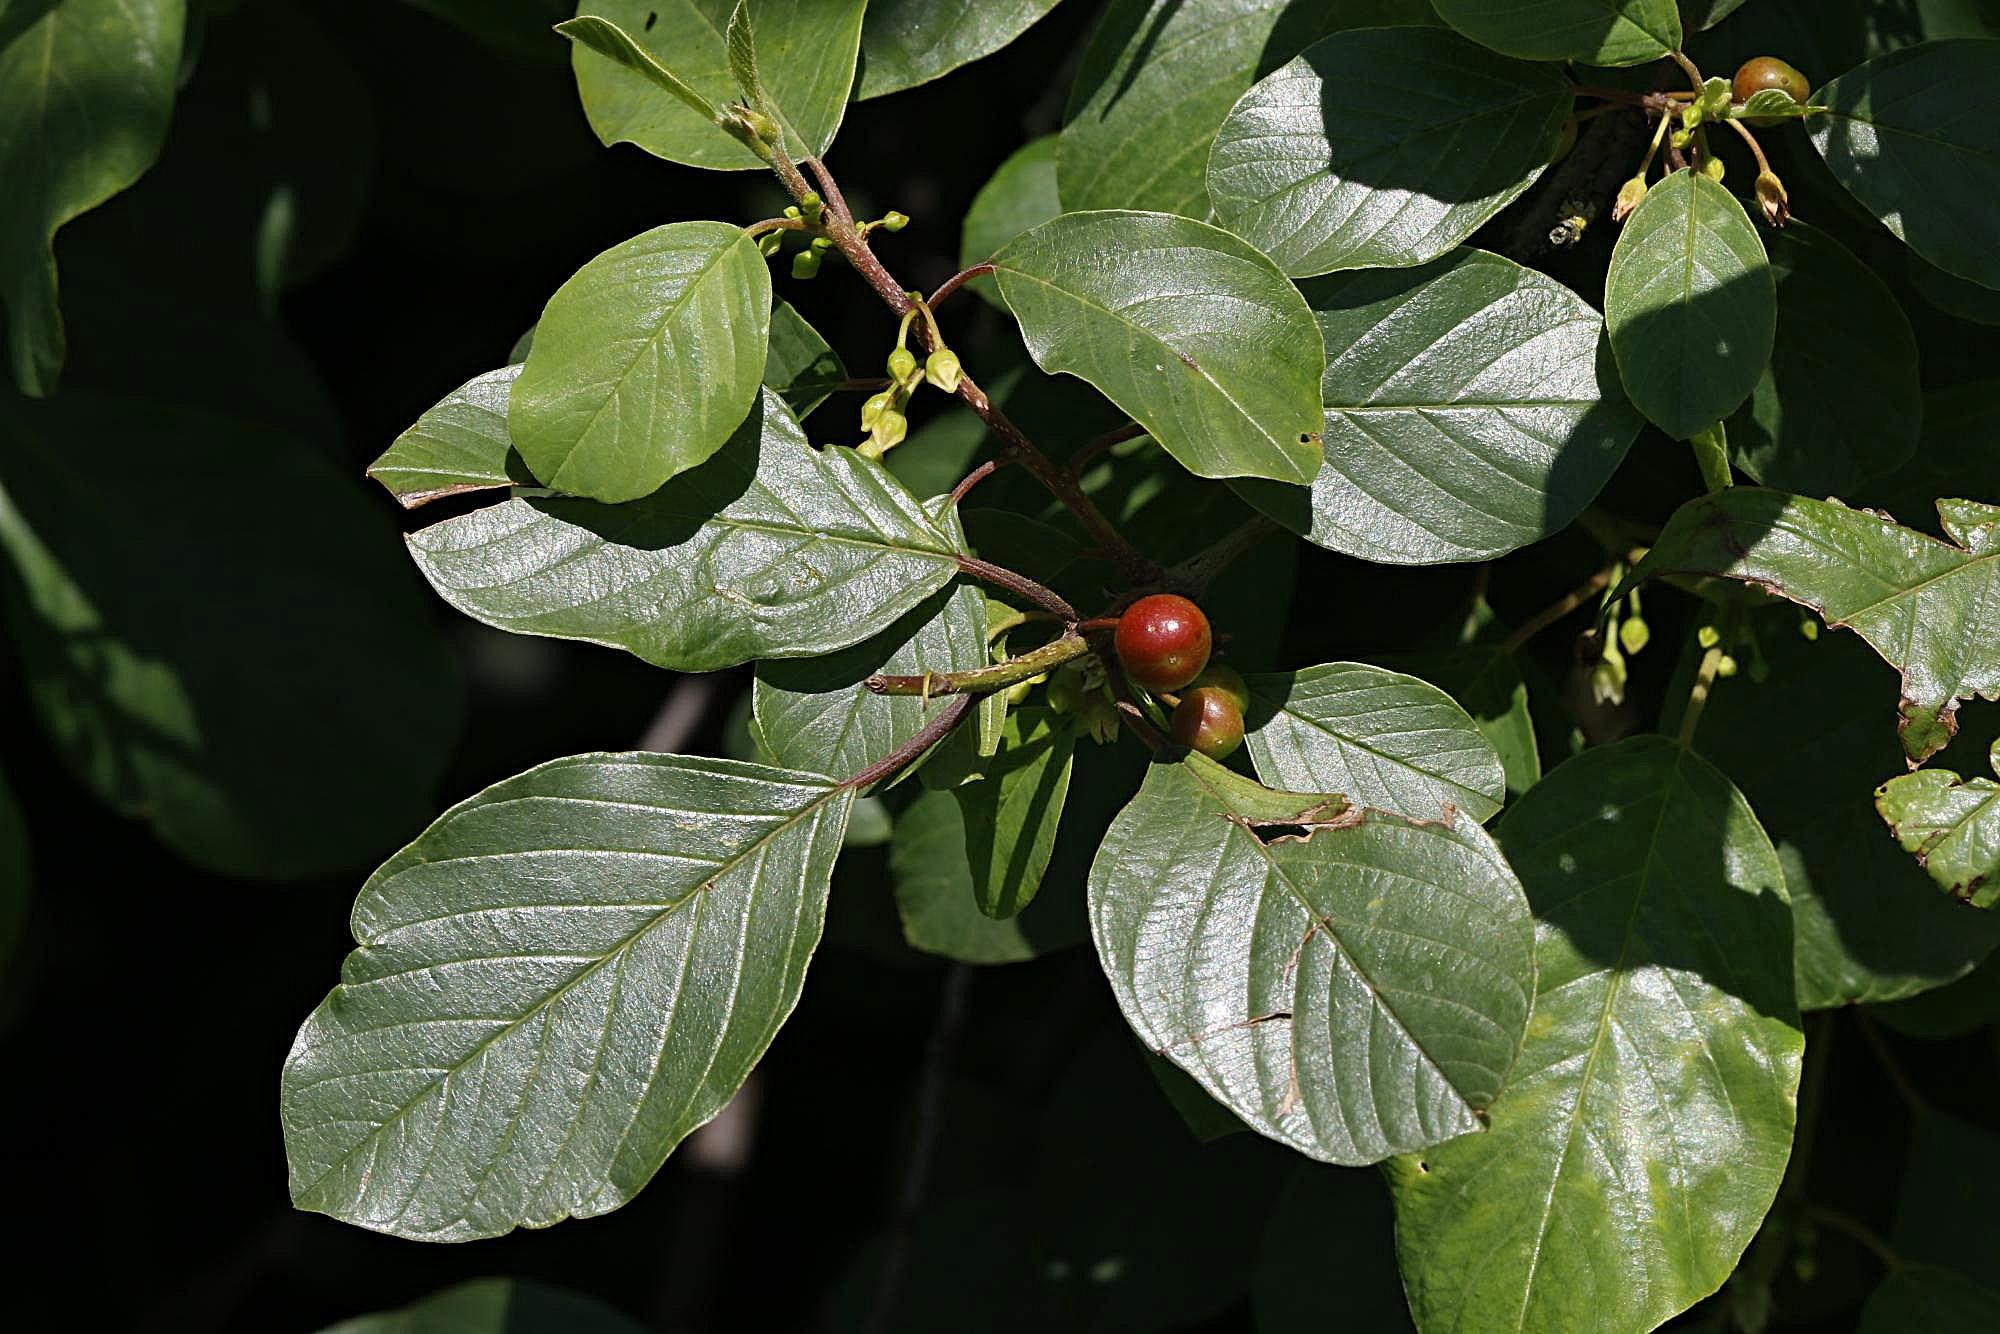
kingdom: Plantae
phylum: Tracheophyta
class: Magnoliopsida
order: Rosales
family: Rhamnaceae
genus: Frangula
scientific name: Frangula alnus
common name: Alder buckthorn
